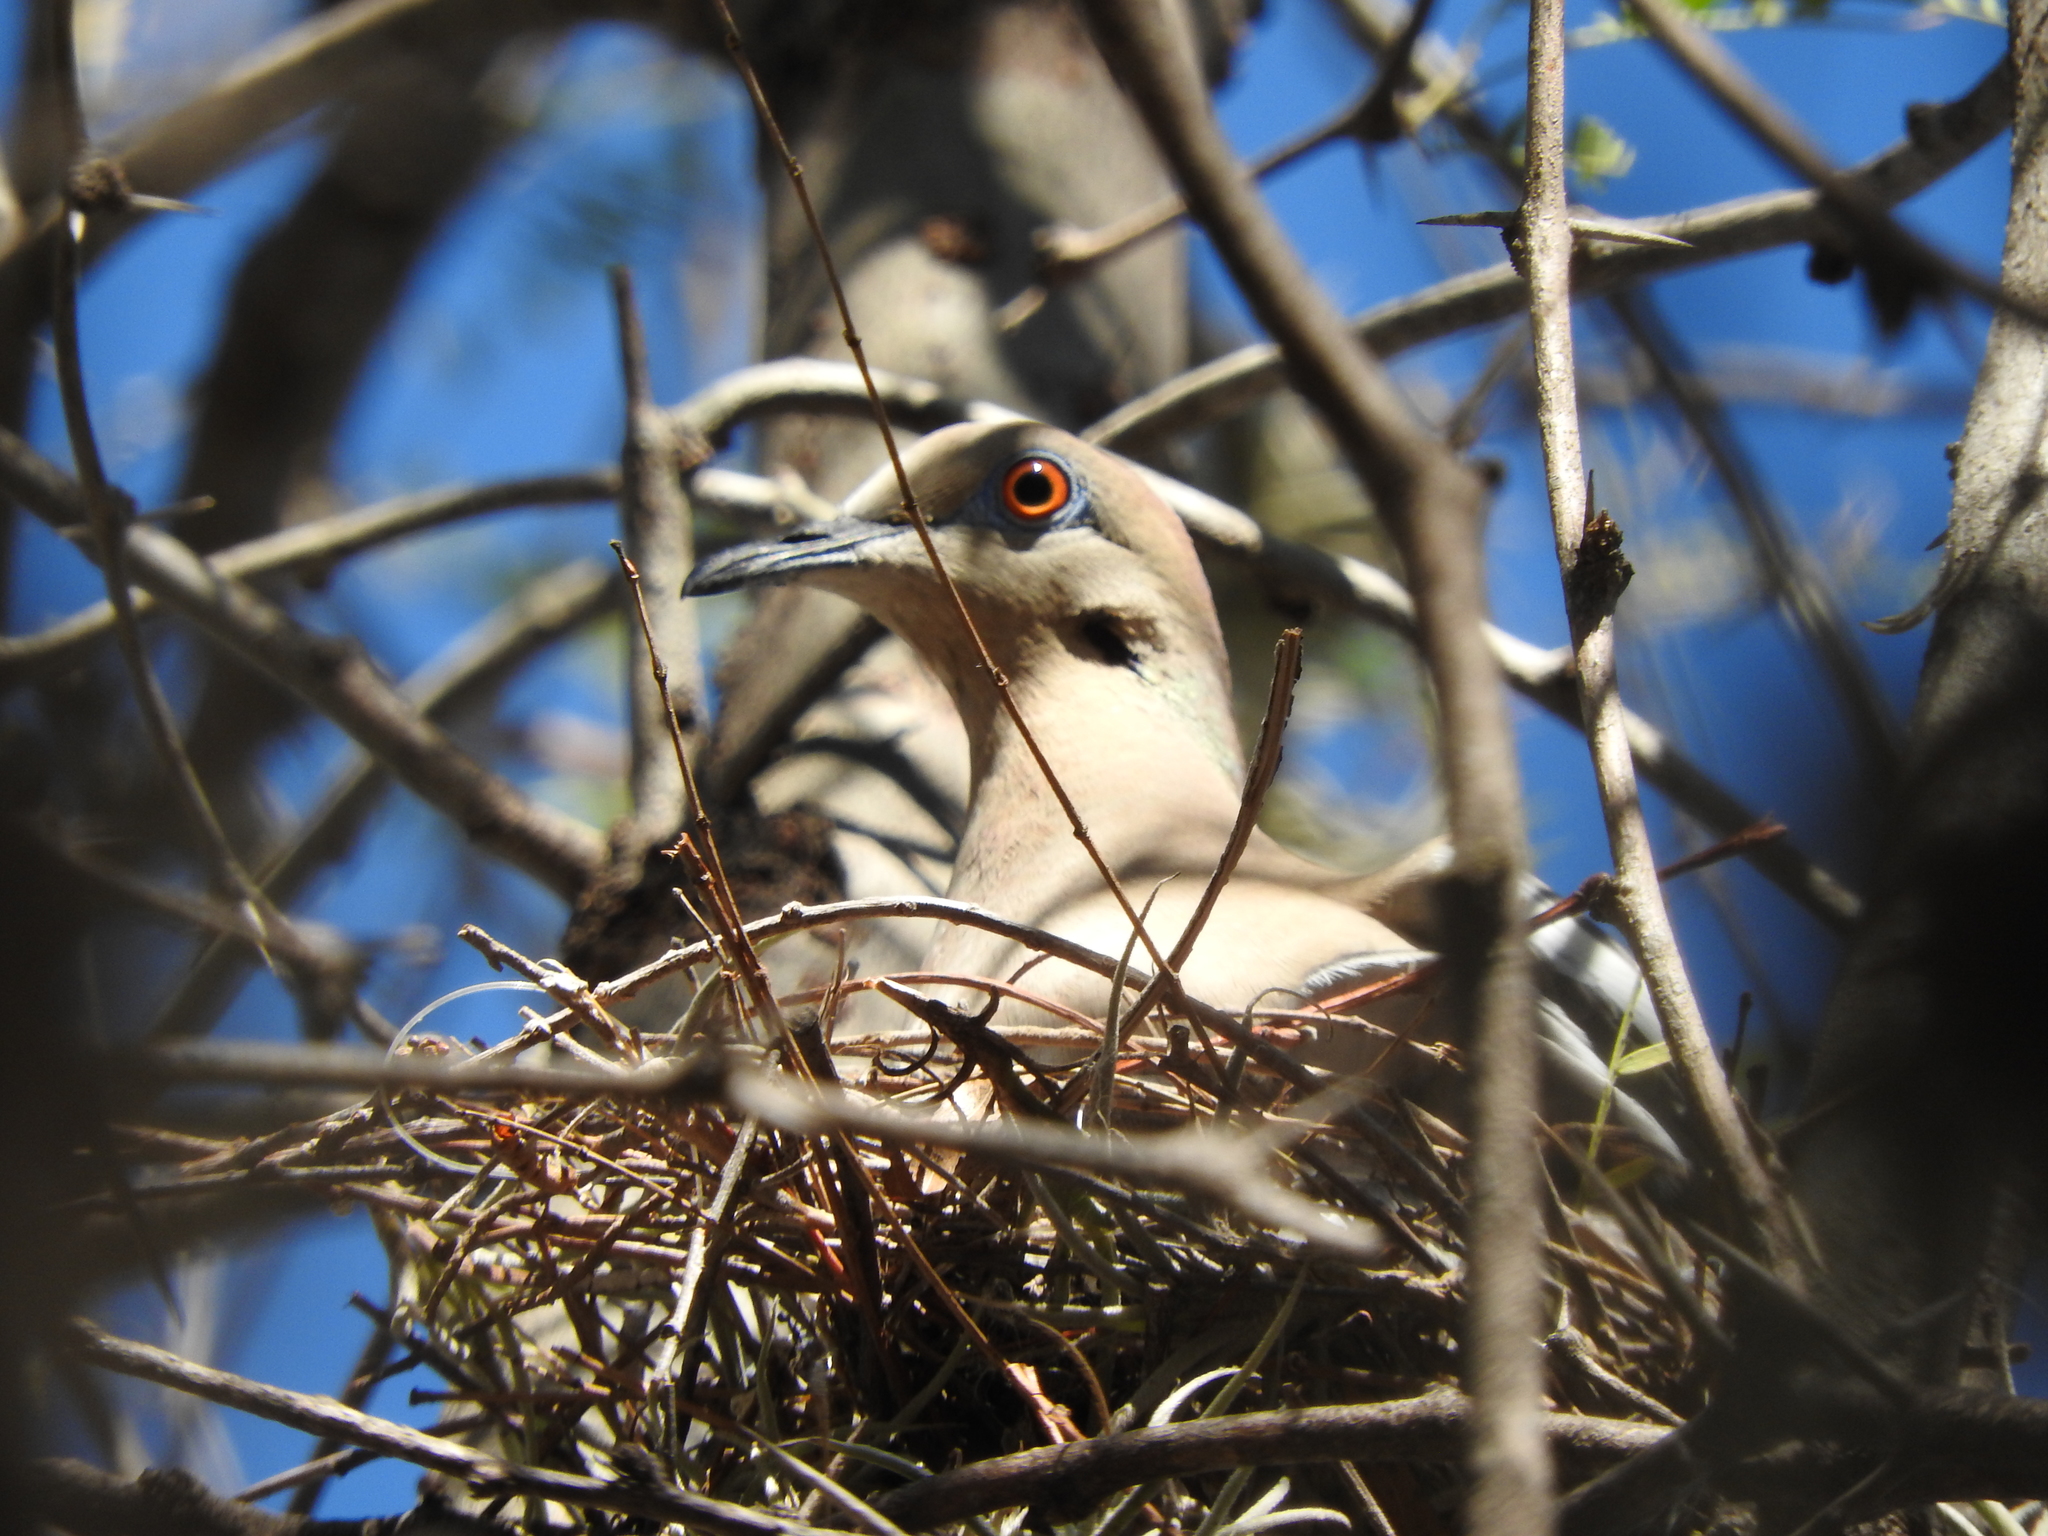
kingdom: Animalia
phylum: Chordata
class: Aves
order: Columbiformes
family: Columbidae
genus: Zenaida
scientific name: Zenaida asiatica
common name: White-winged dove
